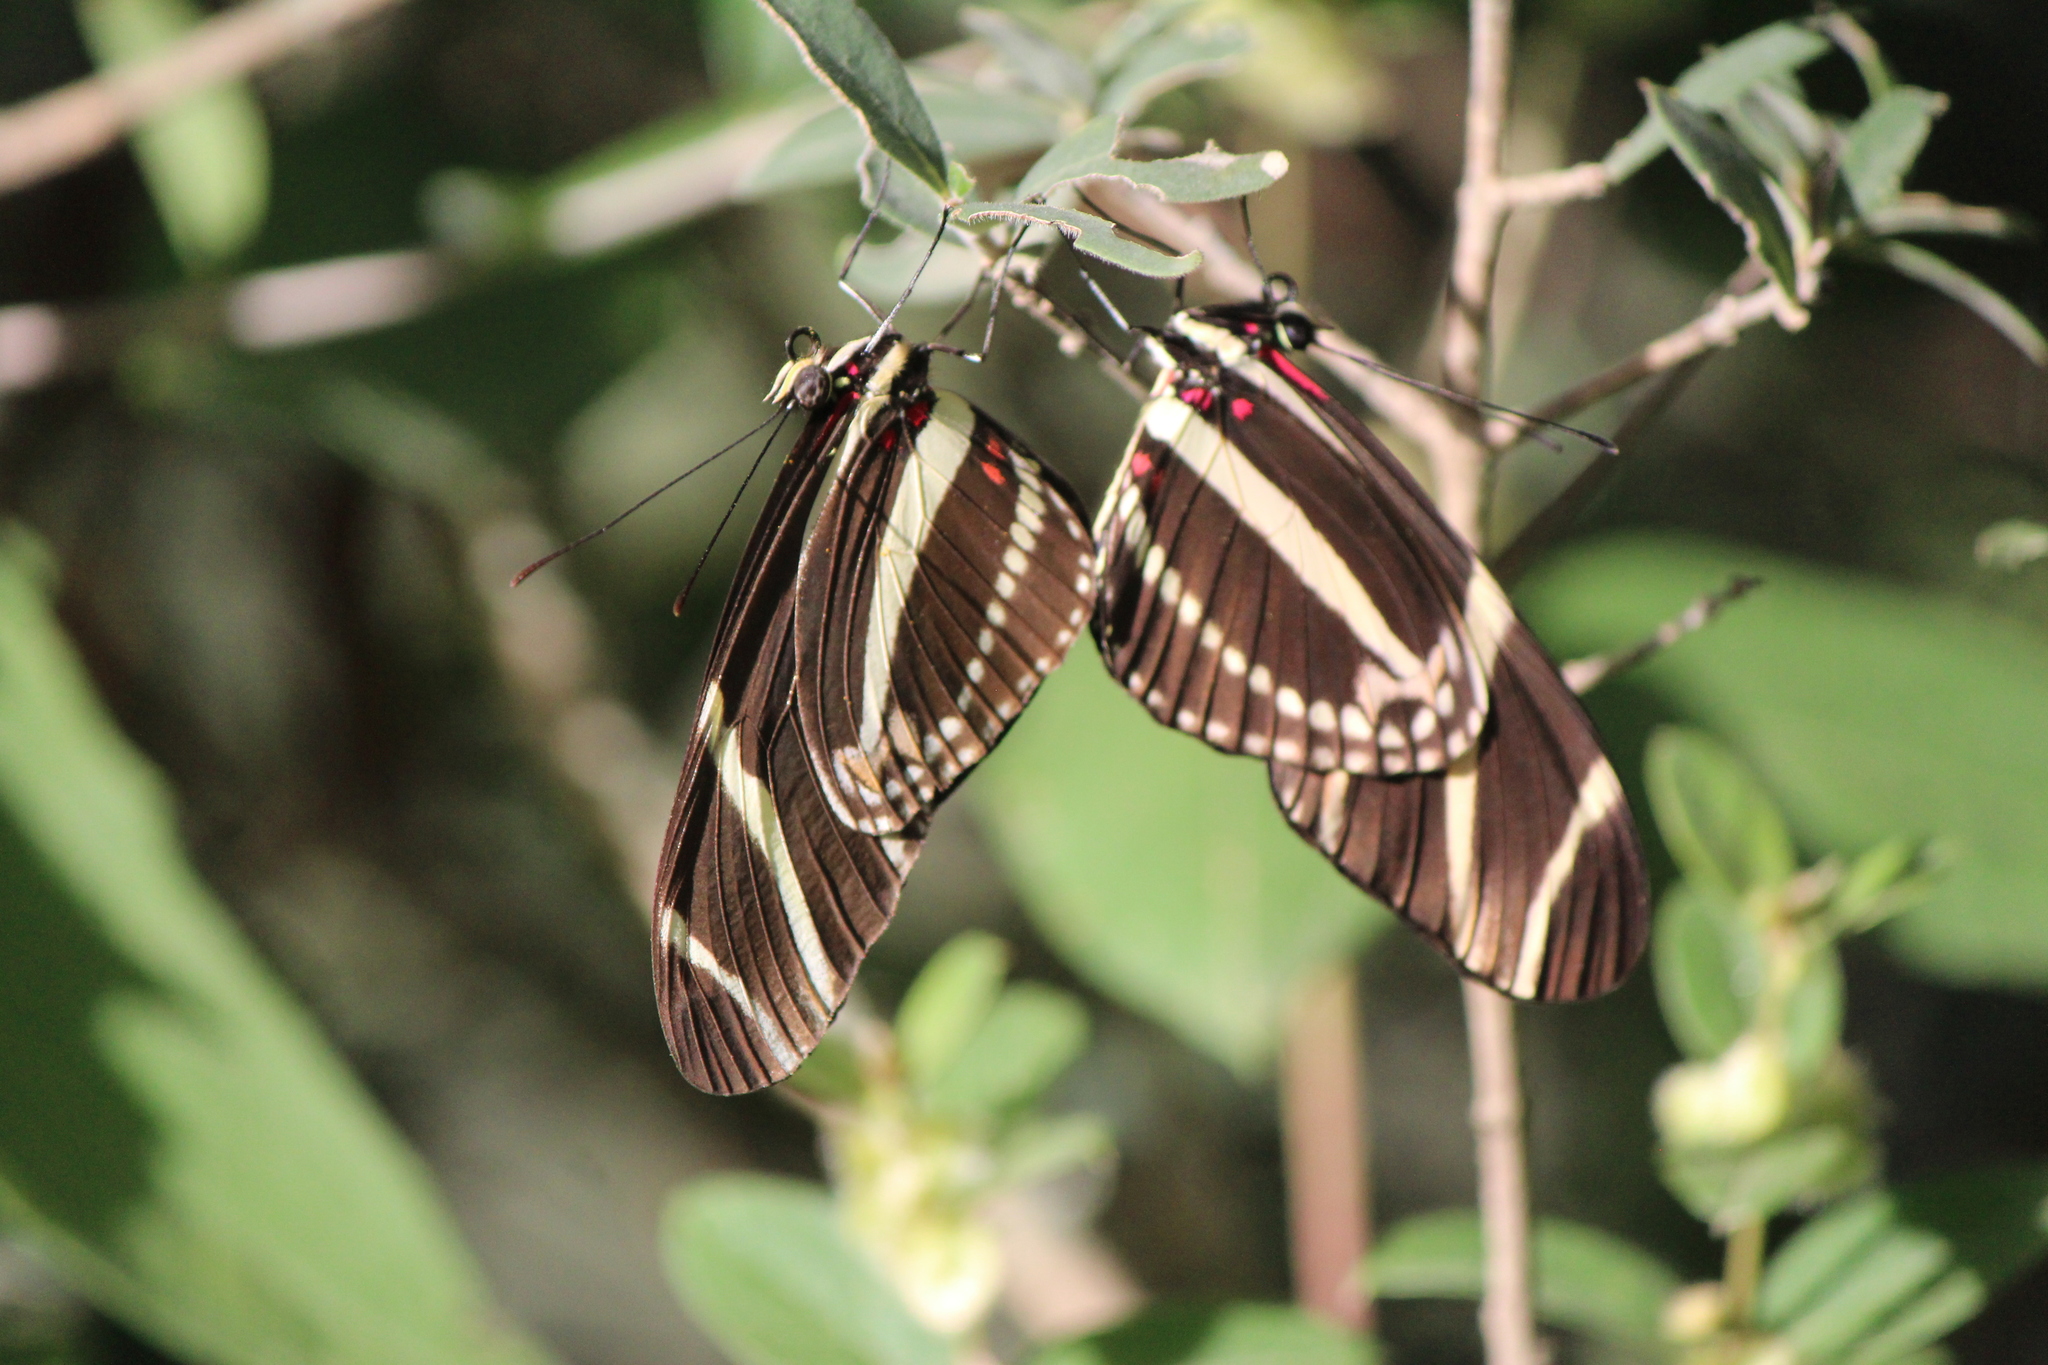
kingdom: Animalia
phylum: Arthropoda
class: Insecta
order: Lepidoptera
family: Nymphalidae
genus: Heliconius
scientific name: Heliconius charithonia
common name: Zebra long wing
